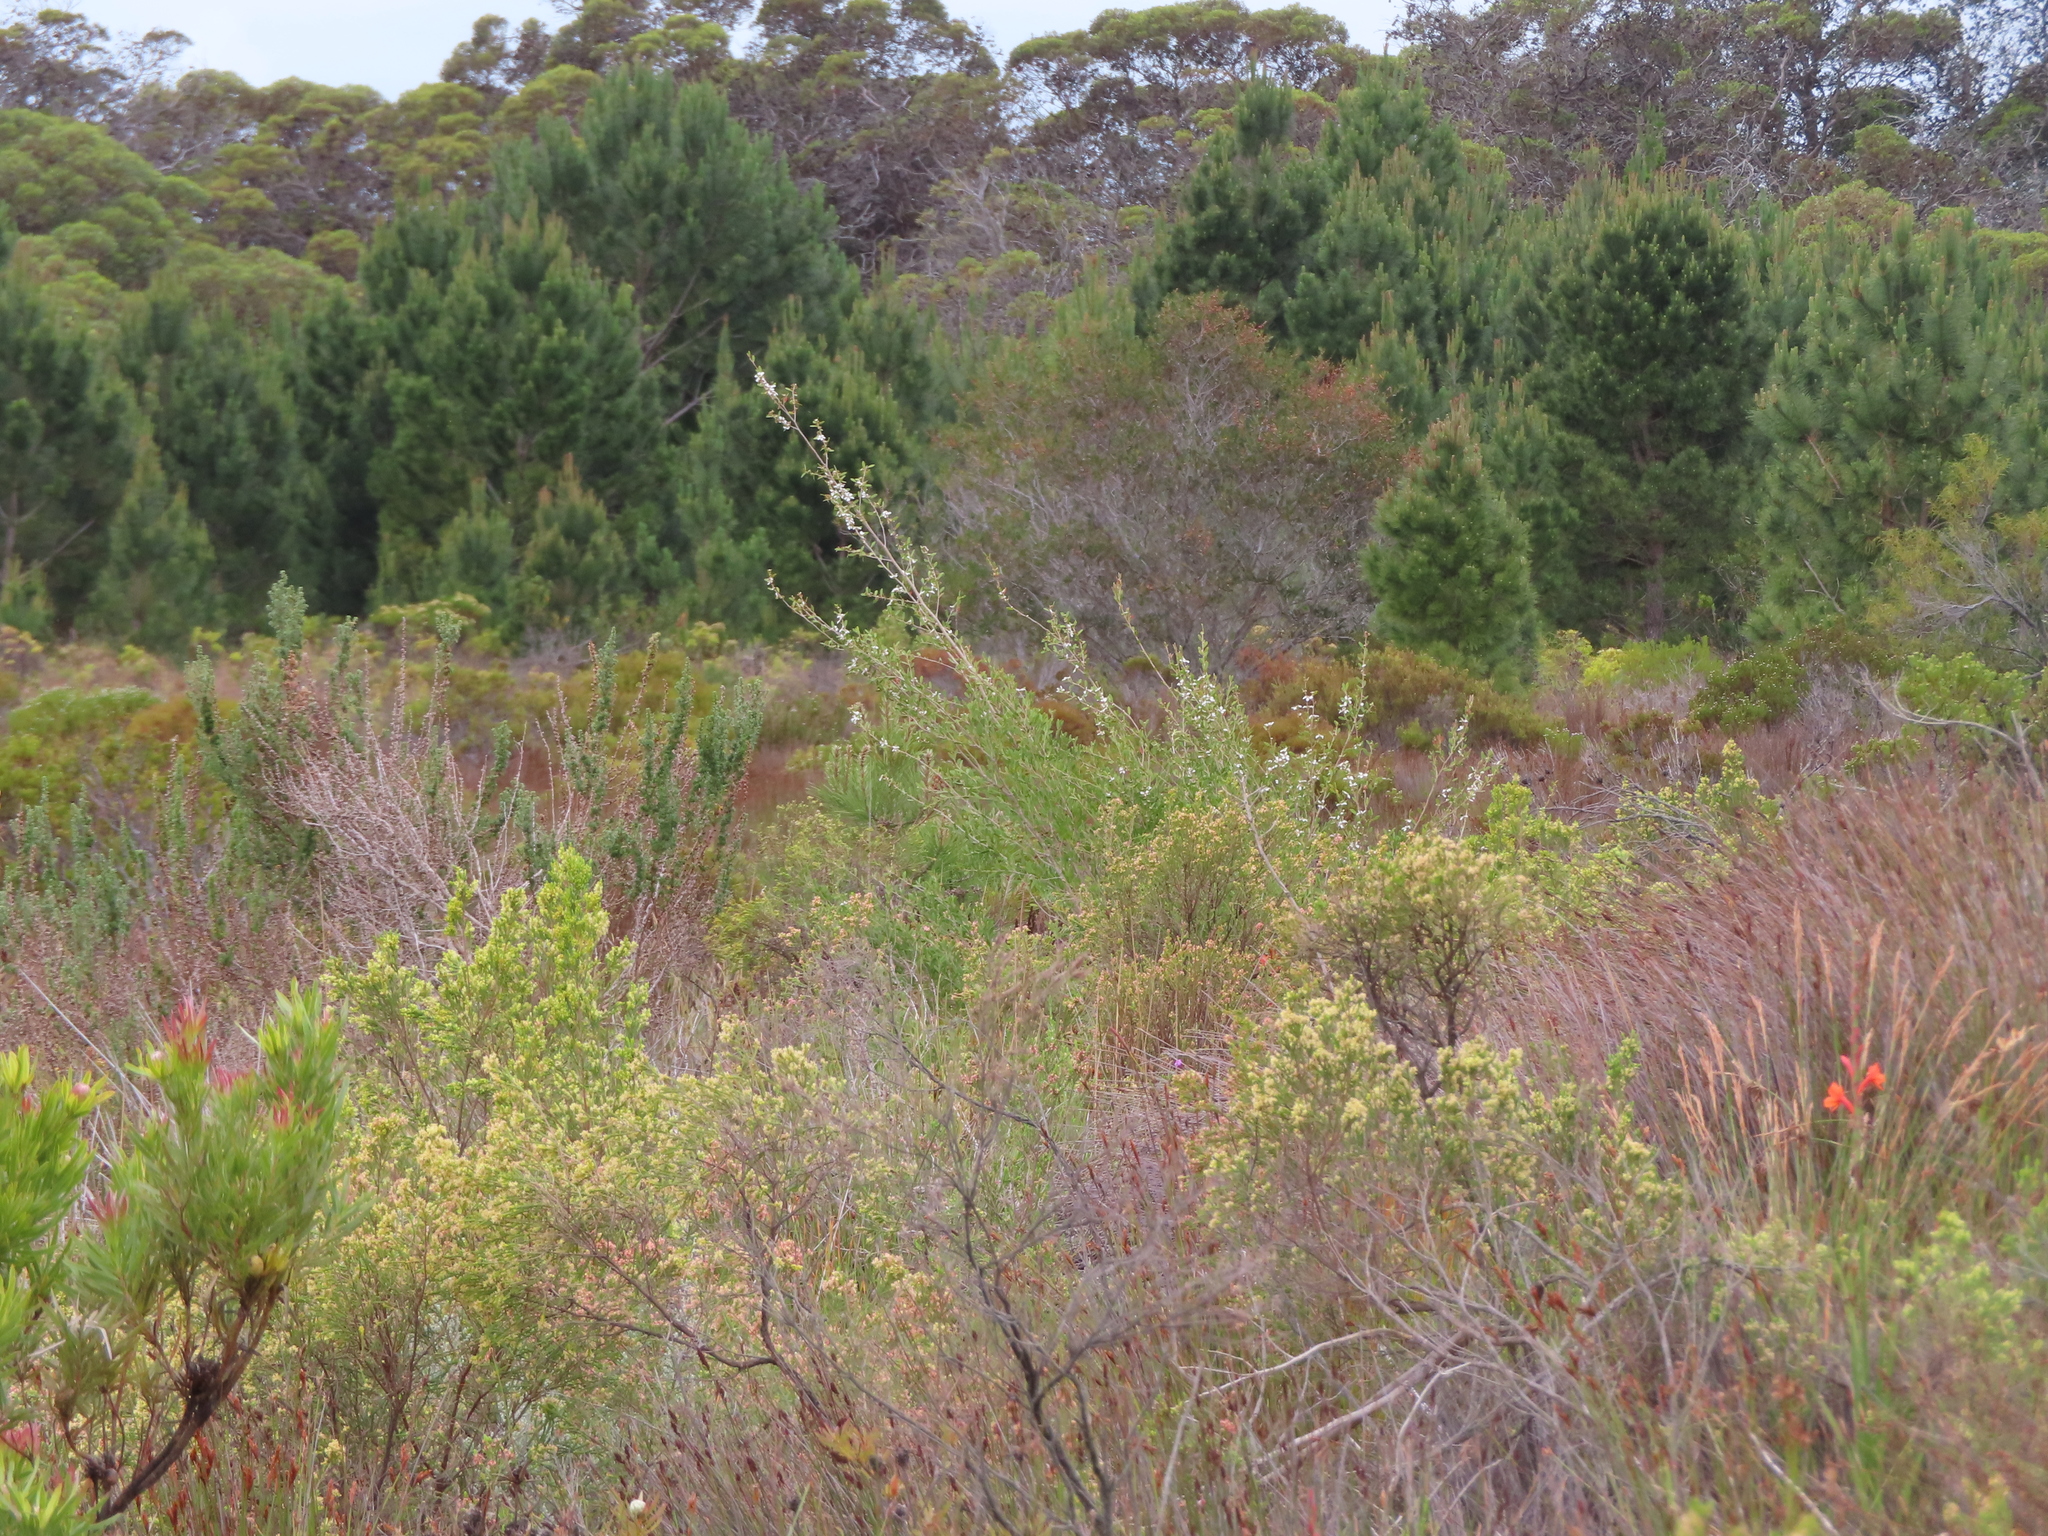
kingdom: Plantae
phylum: Tracheophyta
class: Magnoliopsida
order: Myrtales
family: Myrtaceae
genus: Leptospermum
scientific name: Leptospermum laevigatum
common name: Australian teatree
